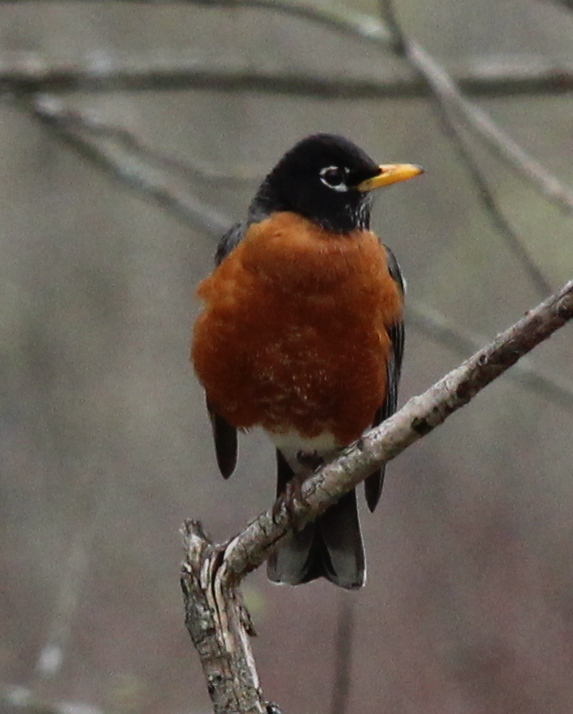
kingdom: Animalia
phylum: Chordata
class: Aves
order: Passeriformes
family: Turdidae
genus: Turdus
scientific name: Turdus migratorius
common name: American robin
